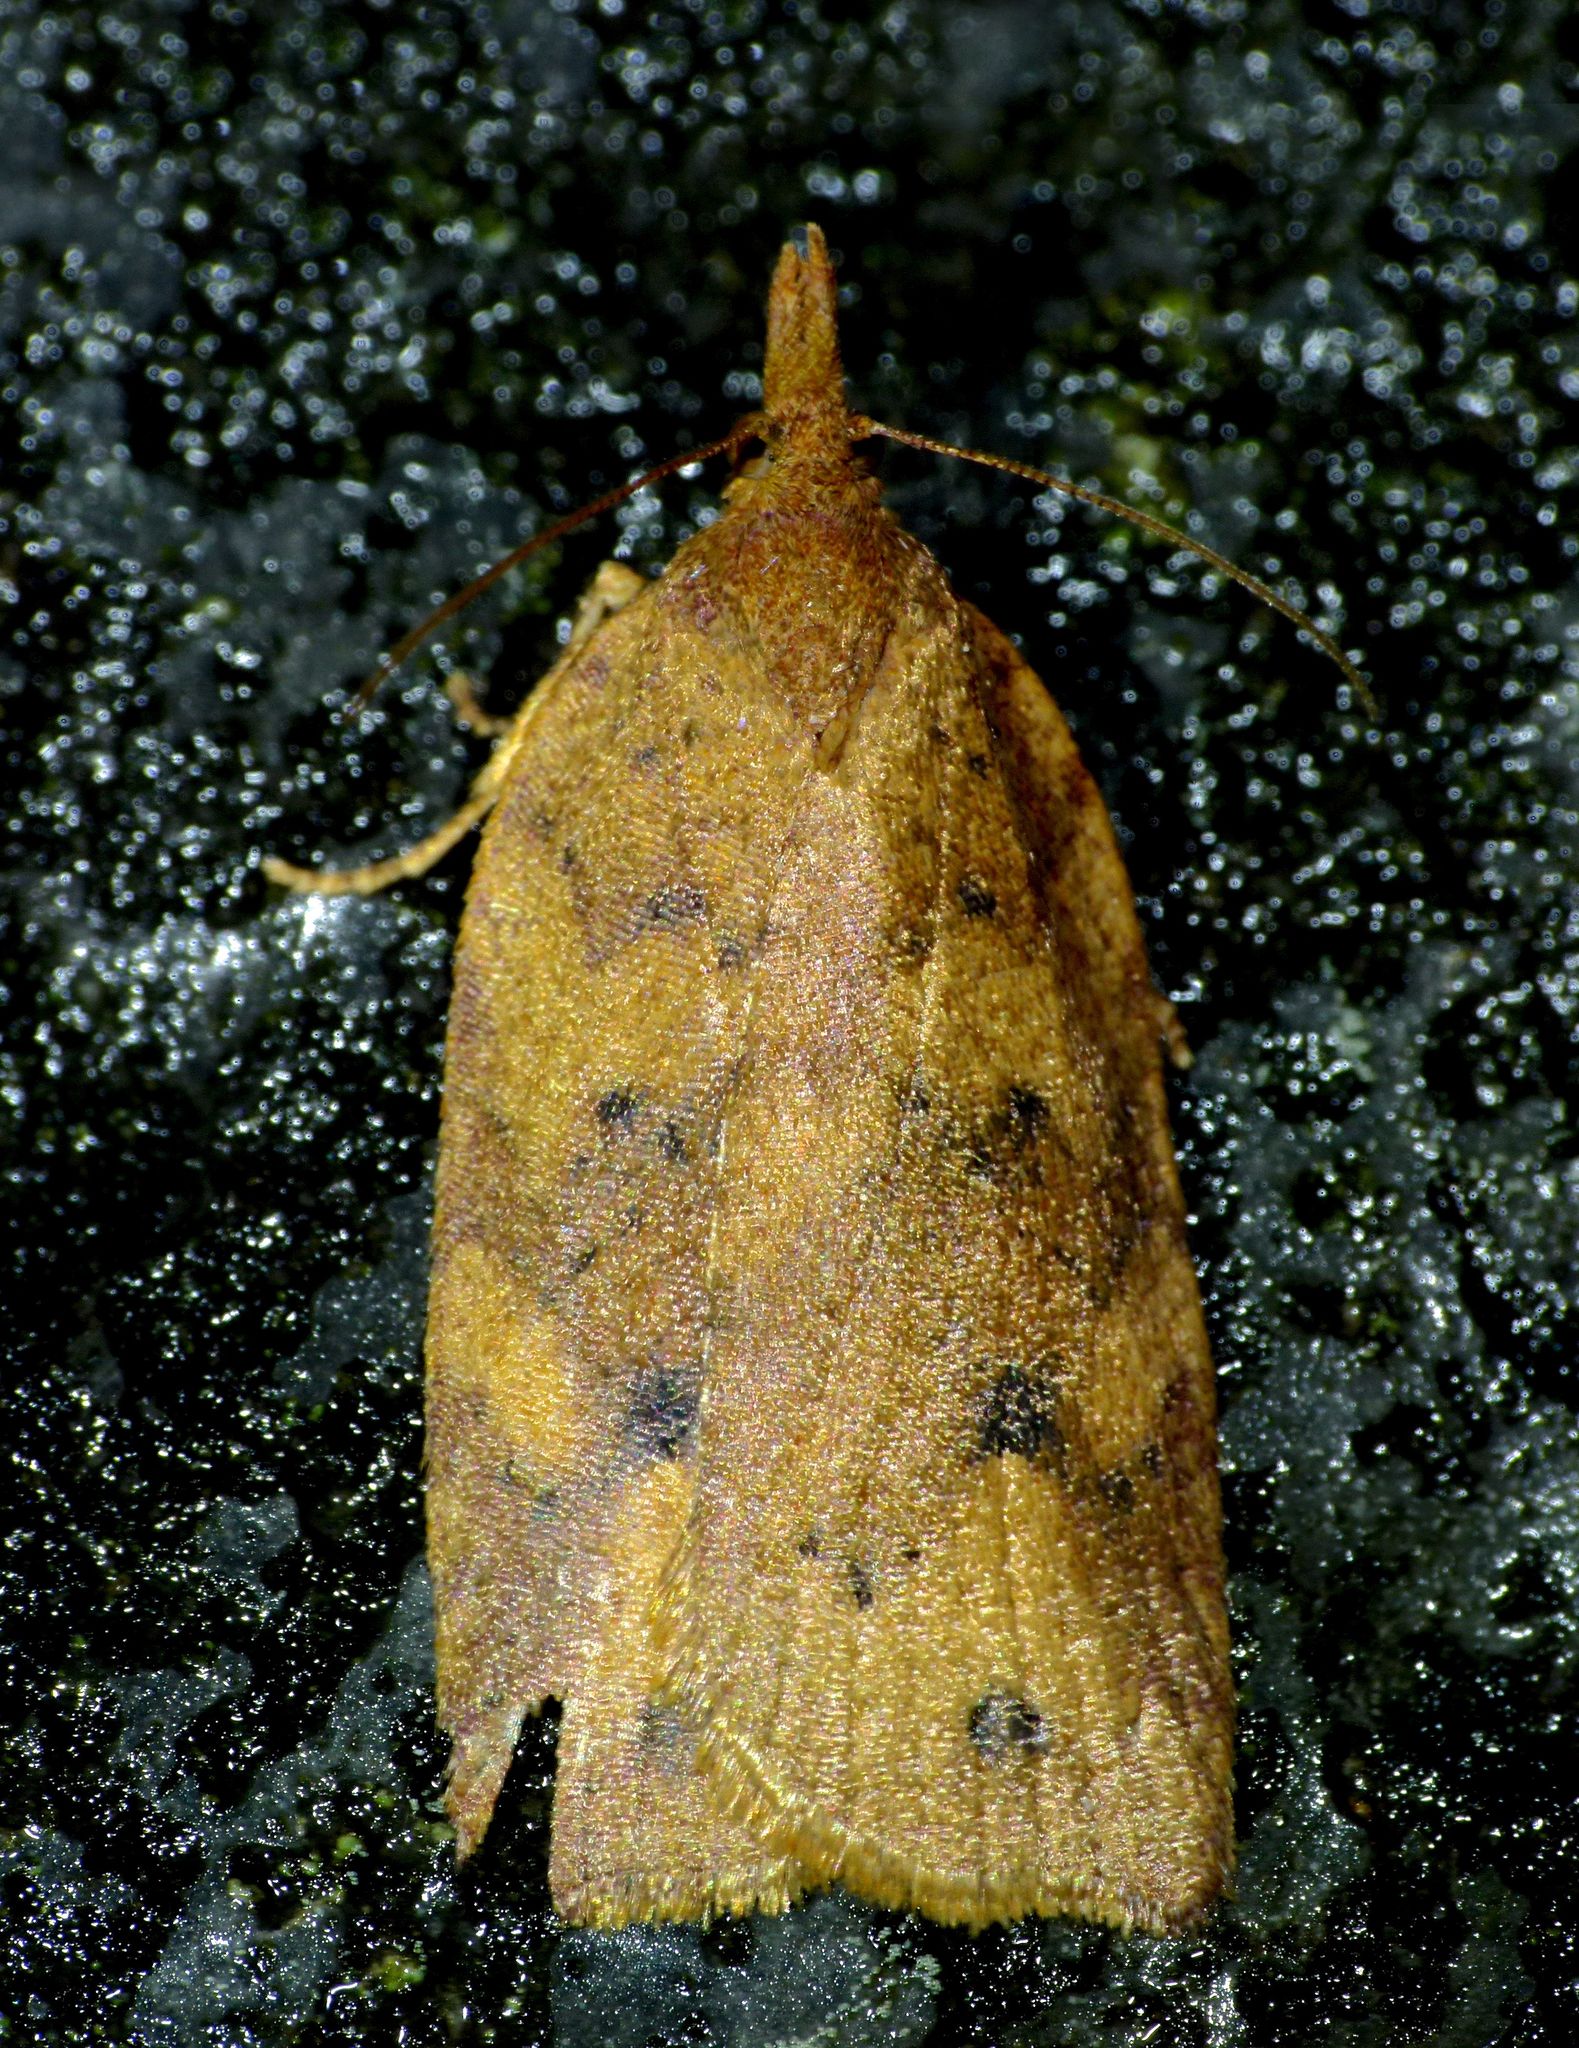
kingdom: Animalia
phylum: Arthropoda
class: Insecta
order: Lepidoptera
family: Tortricidae
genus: Planotortrix
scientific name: Planotortrix excessana
